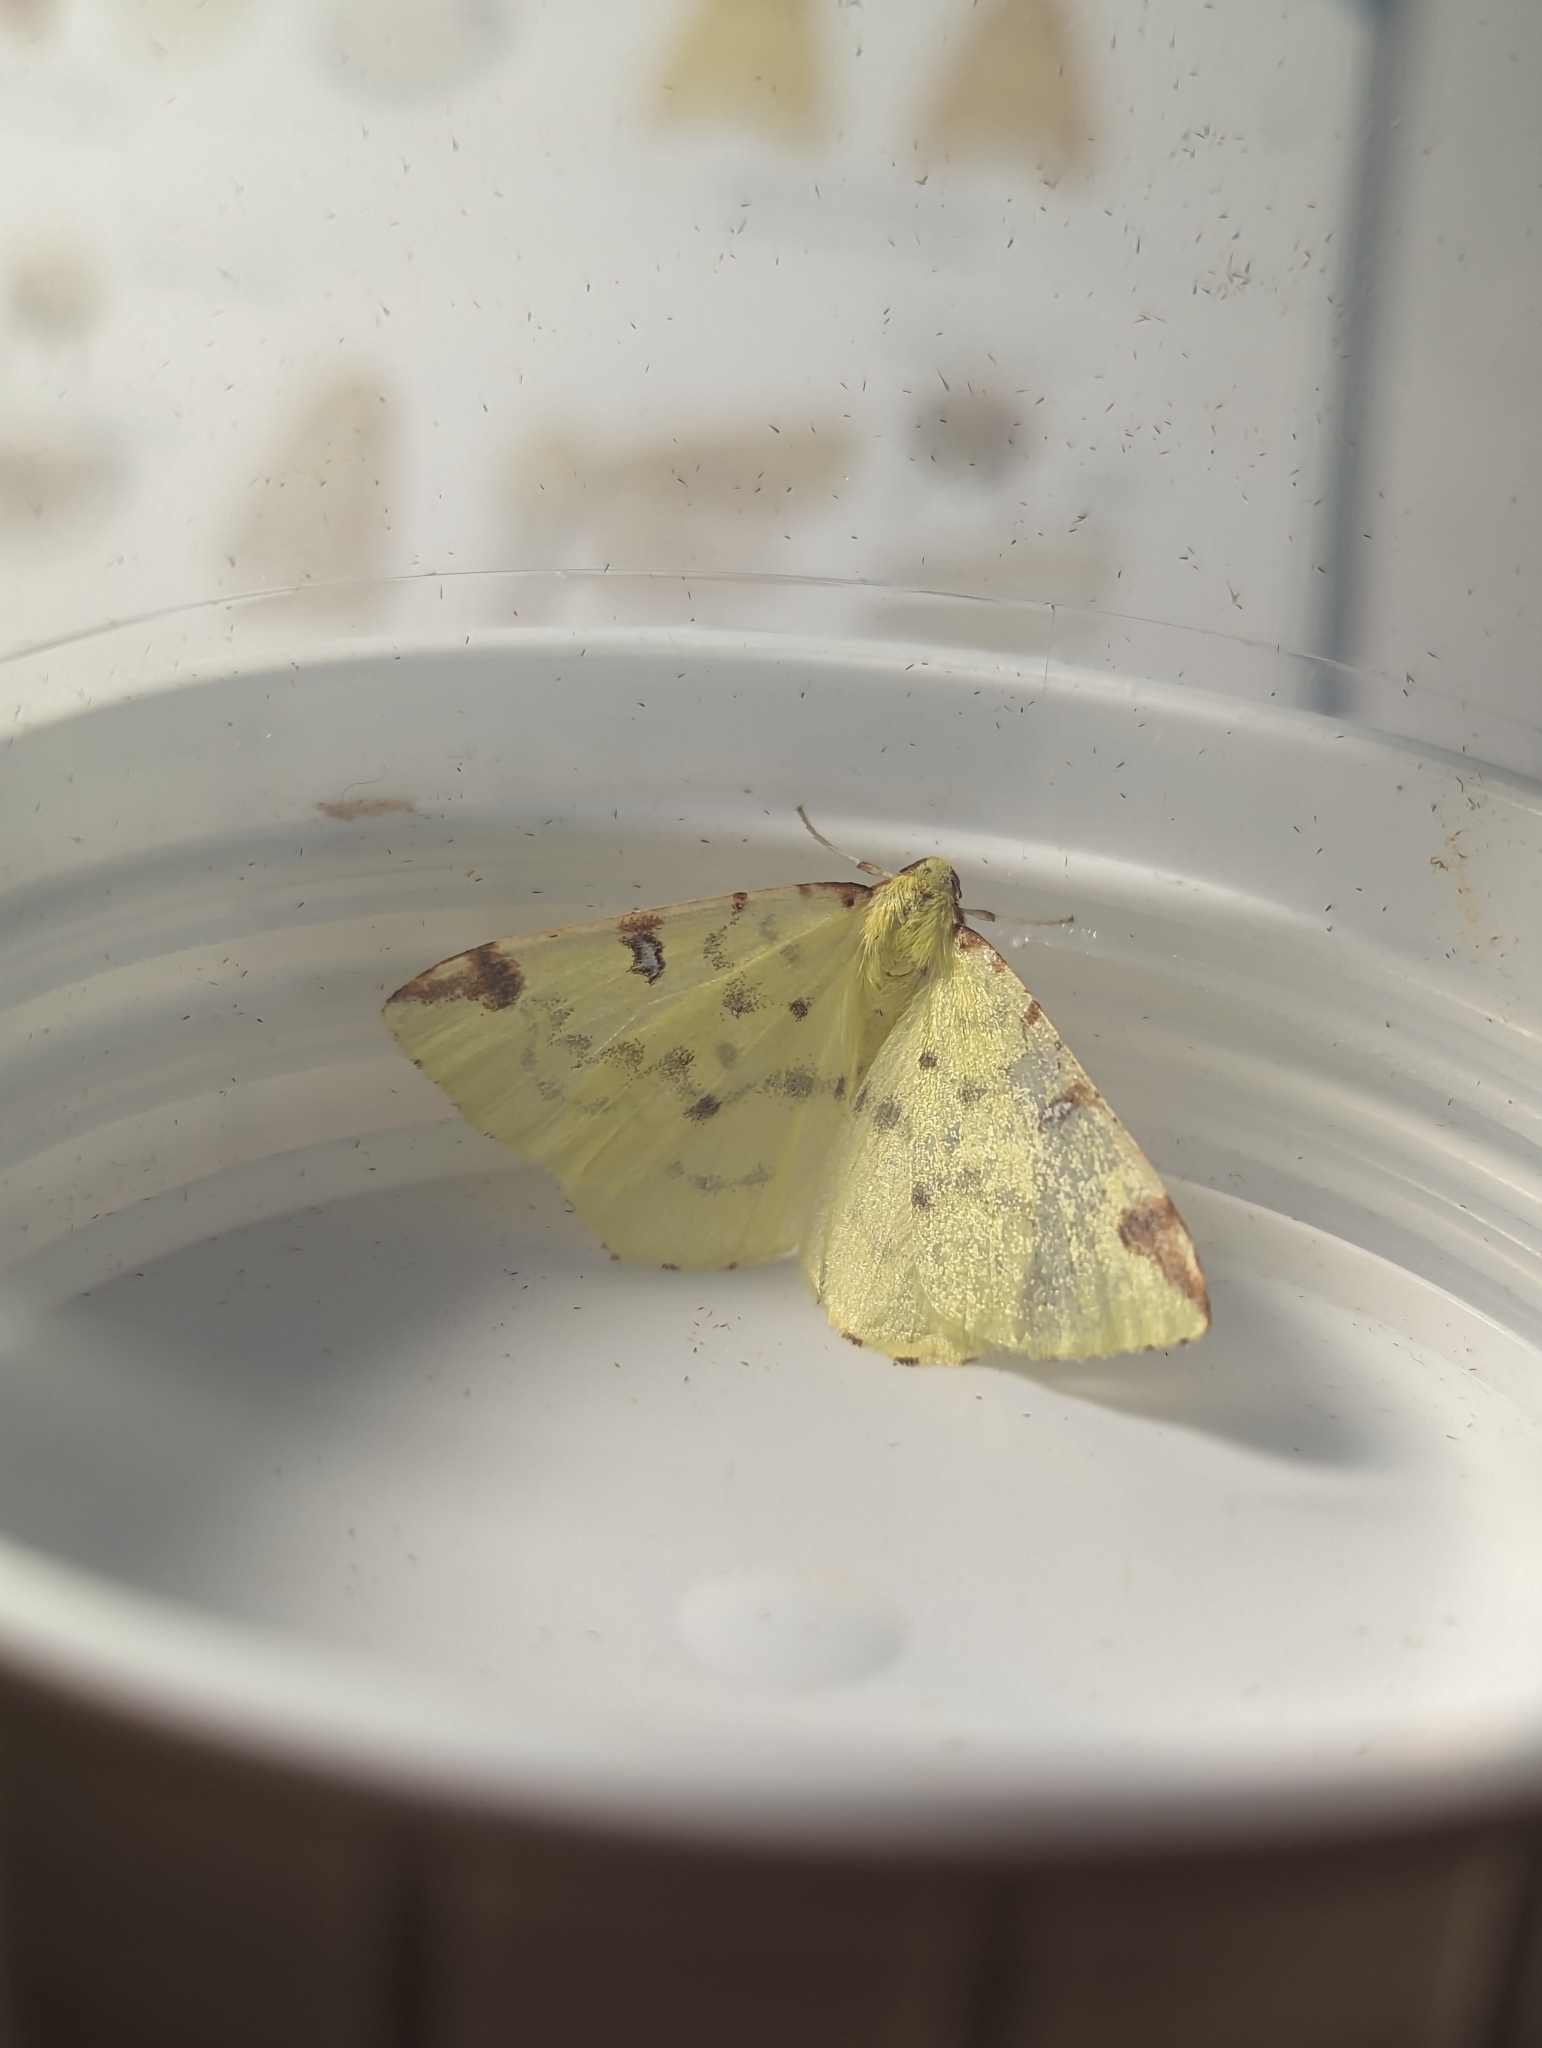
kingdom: Animalia
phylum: Arthropoda
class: Insecta
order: Lepidoptera
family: Geometridae
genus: Opisthograptis
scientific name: Opisthograptis luteolata
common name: Brimstone moth
